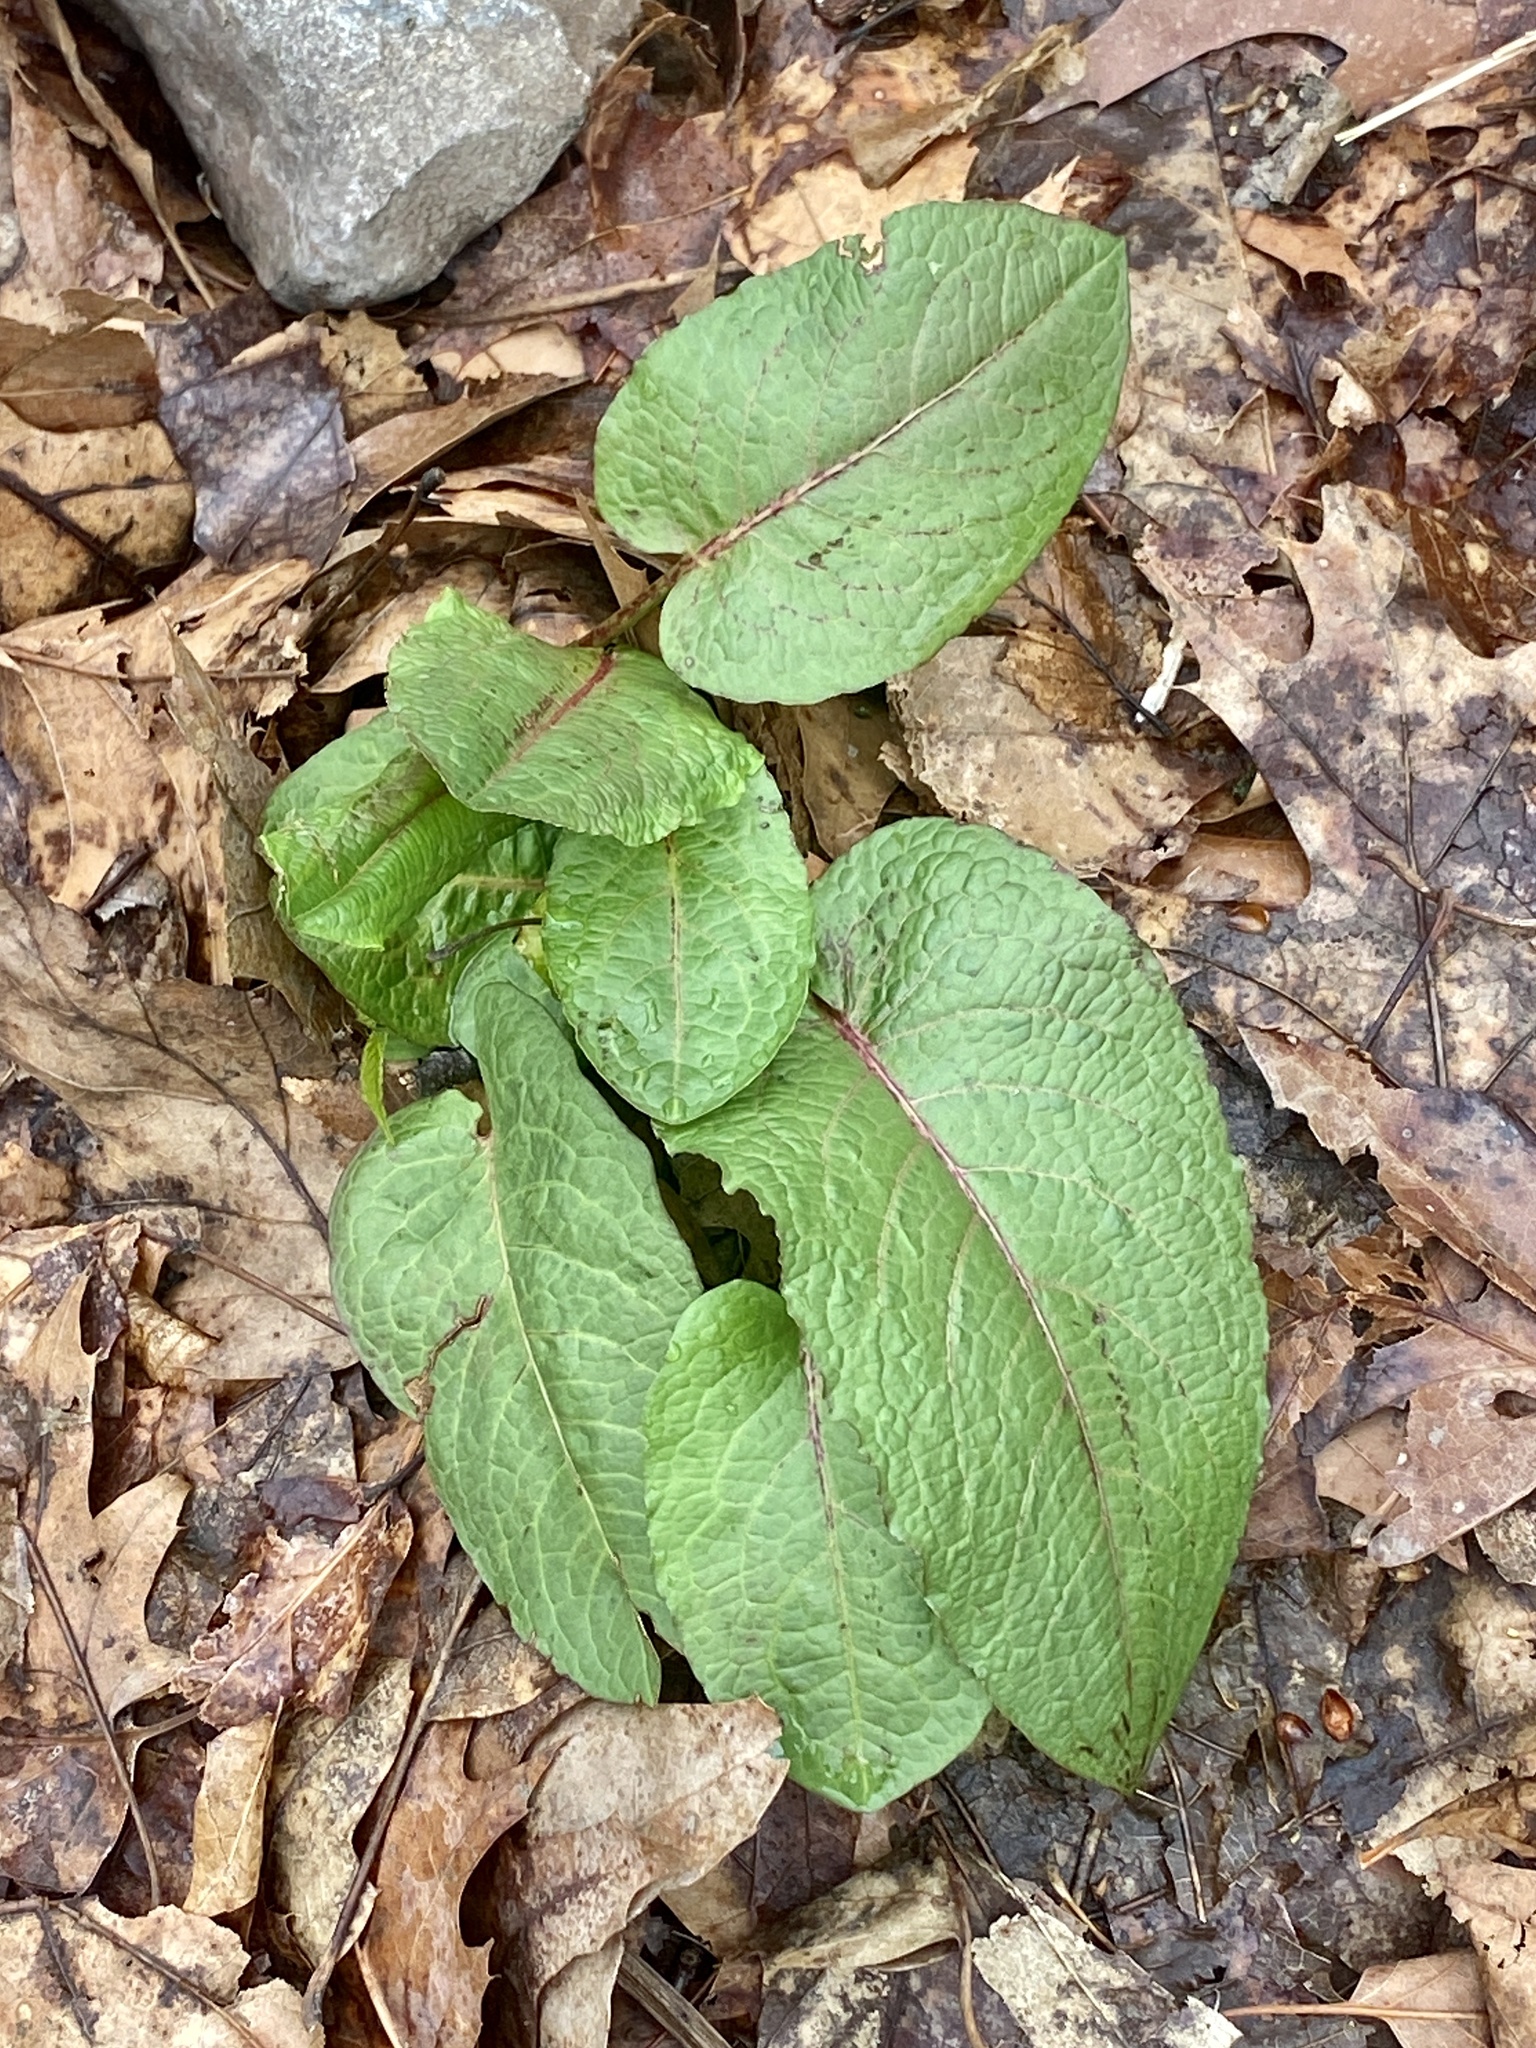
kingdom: Plantae
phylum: Tracheophyta
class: Magnoliopsida
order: Caryophyllales
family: Polygonaceae
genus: Rumex
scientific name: Rumex obtusifolius
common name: Bitter dock
